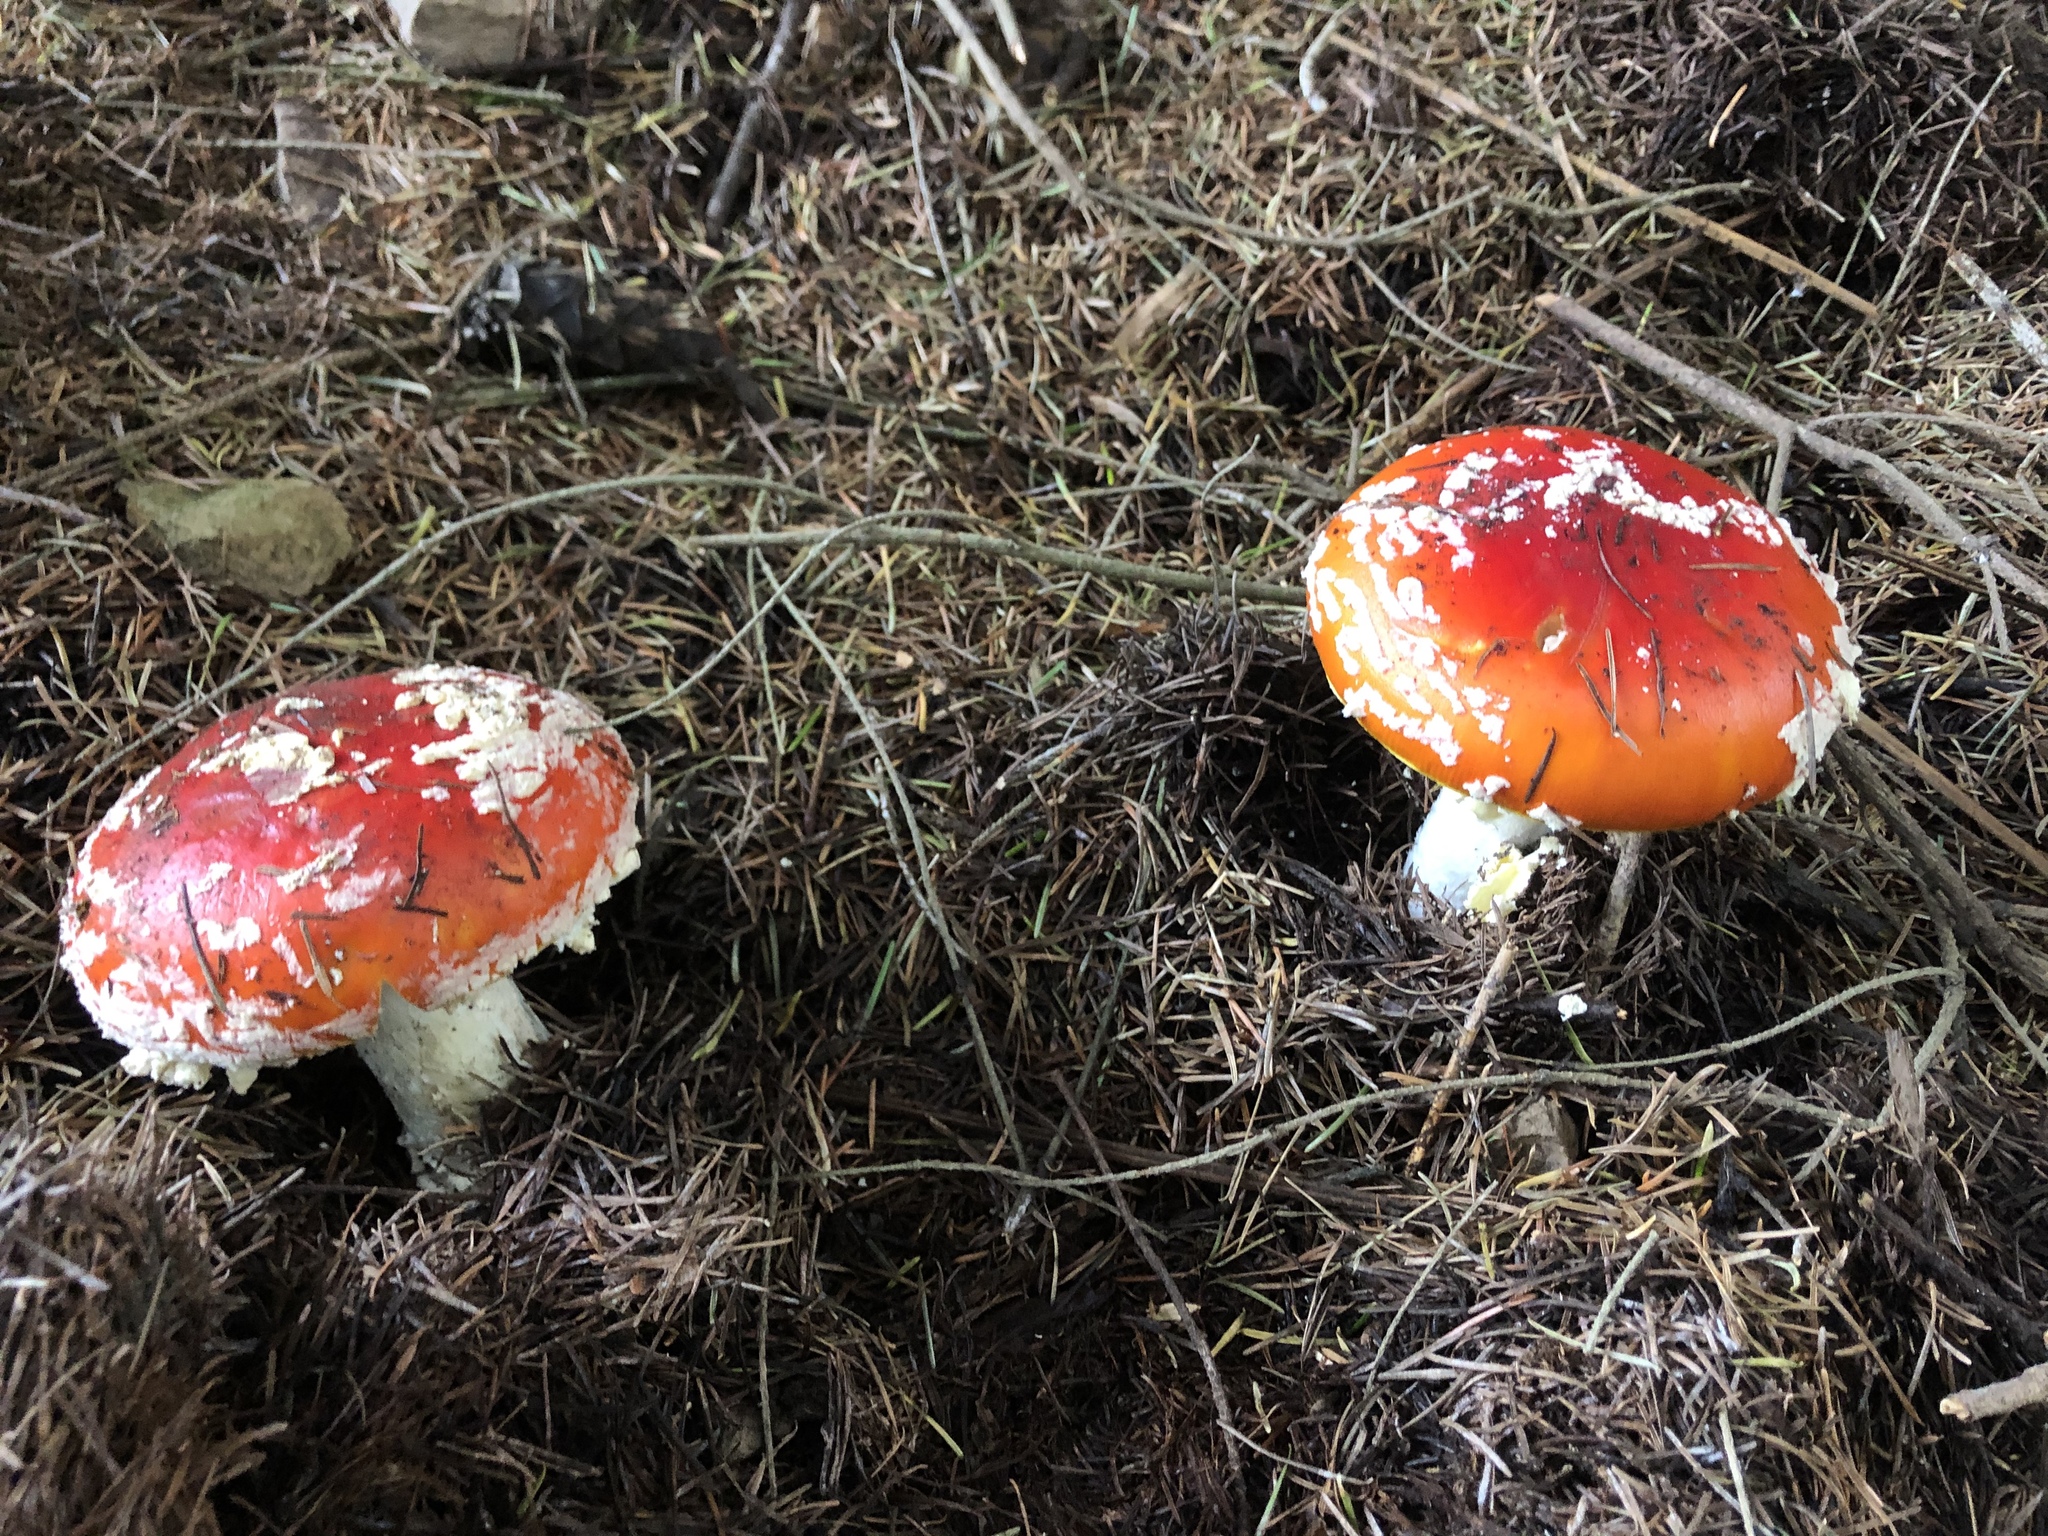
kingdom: Fungi
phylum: Basidiomycota
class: Agaricomycetes
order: Agaricales
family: Amanitaceae
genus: Amanita
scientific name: Amanita muscaria
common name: Fly agaric
